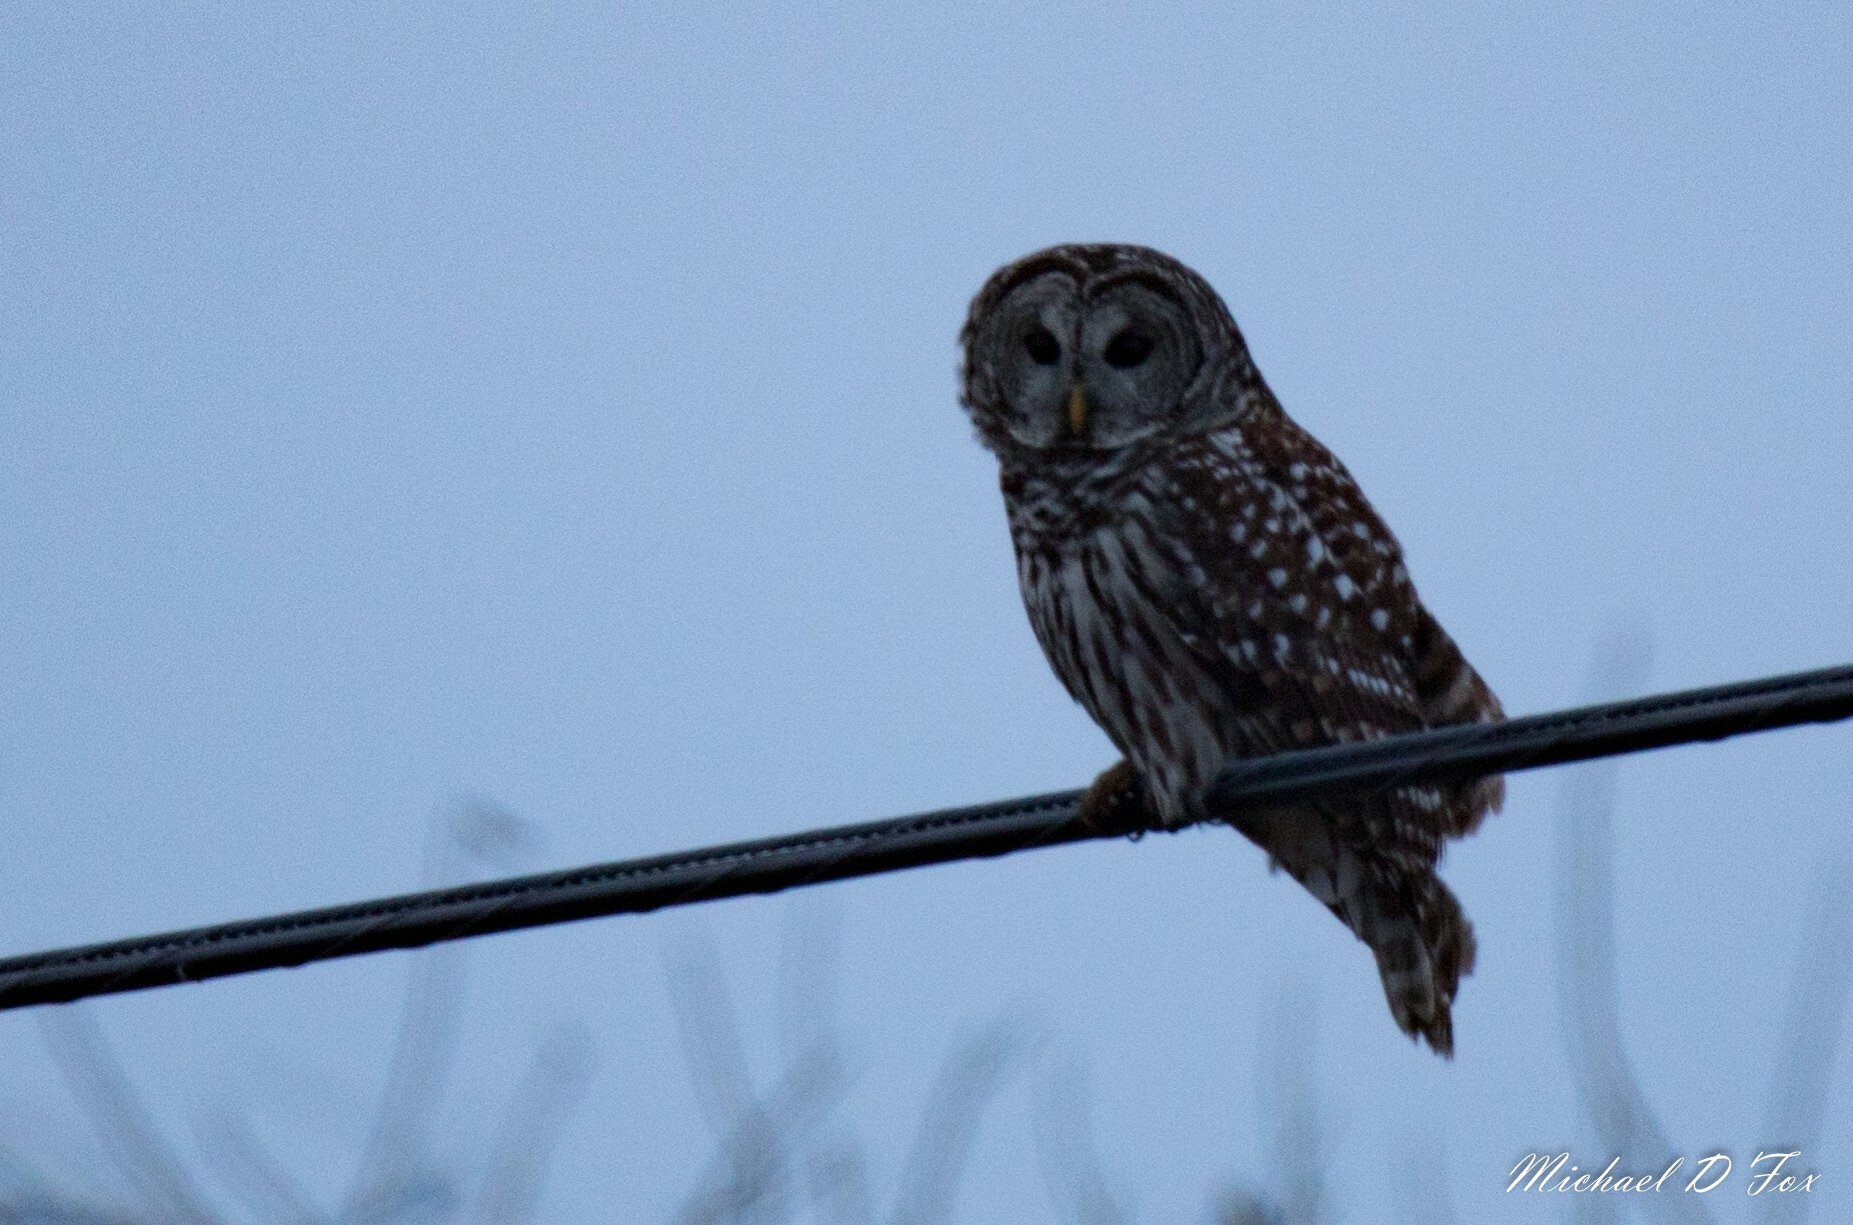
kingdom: Animalia
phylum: Chordata
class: Aves
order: Strigiformes
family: Strigidae
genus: Strix
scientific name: Strix varia
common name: Barred owl
